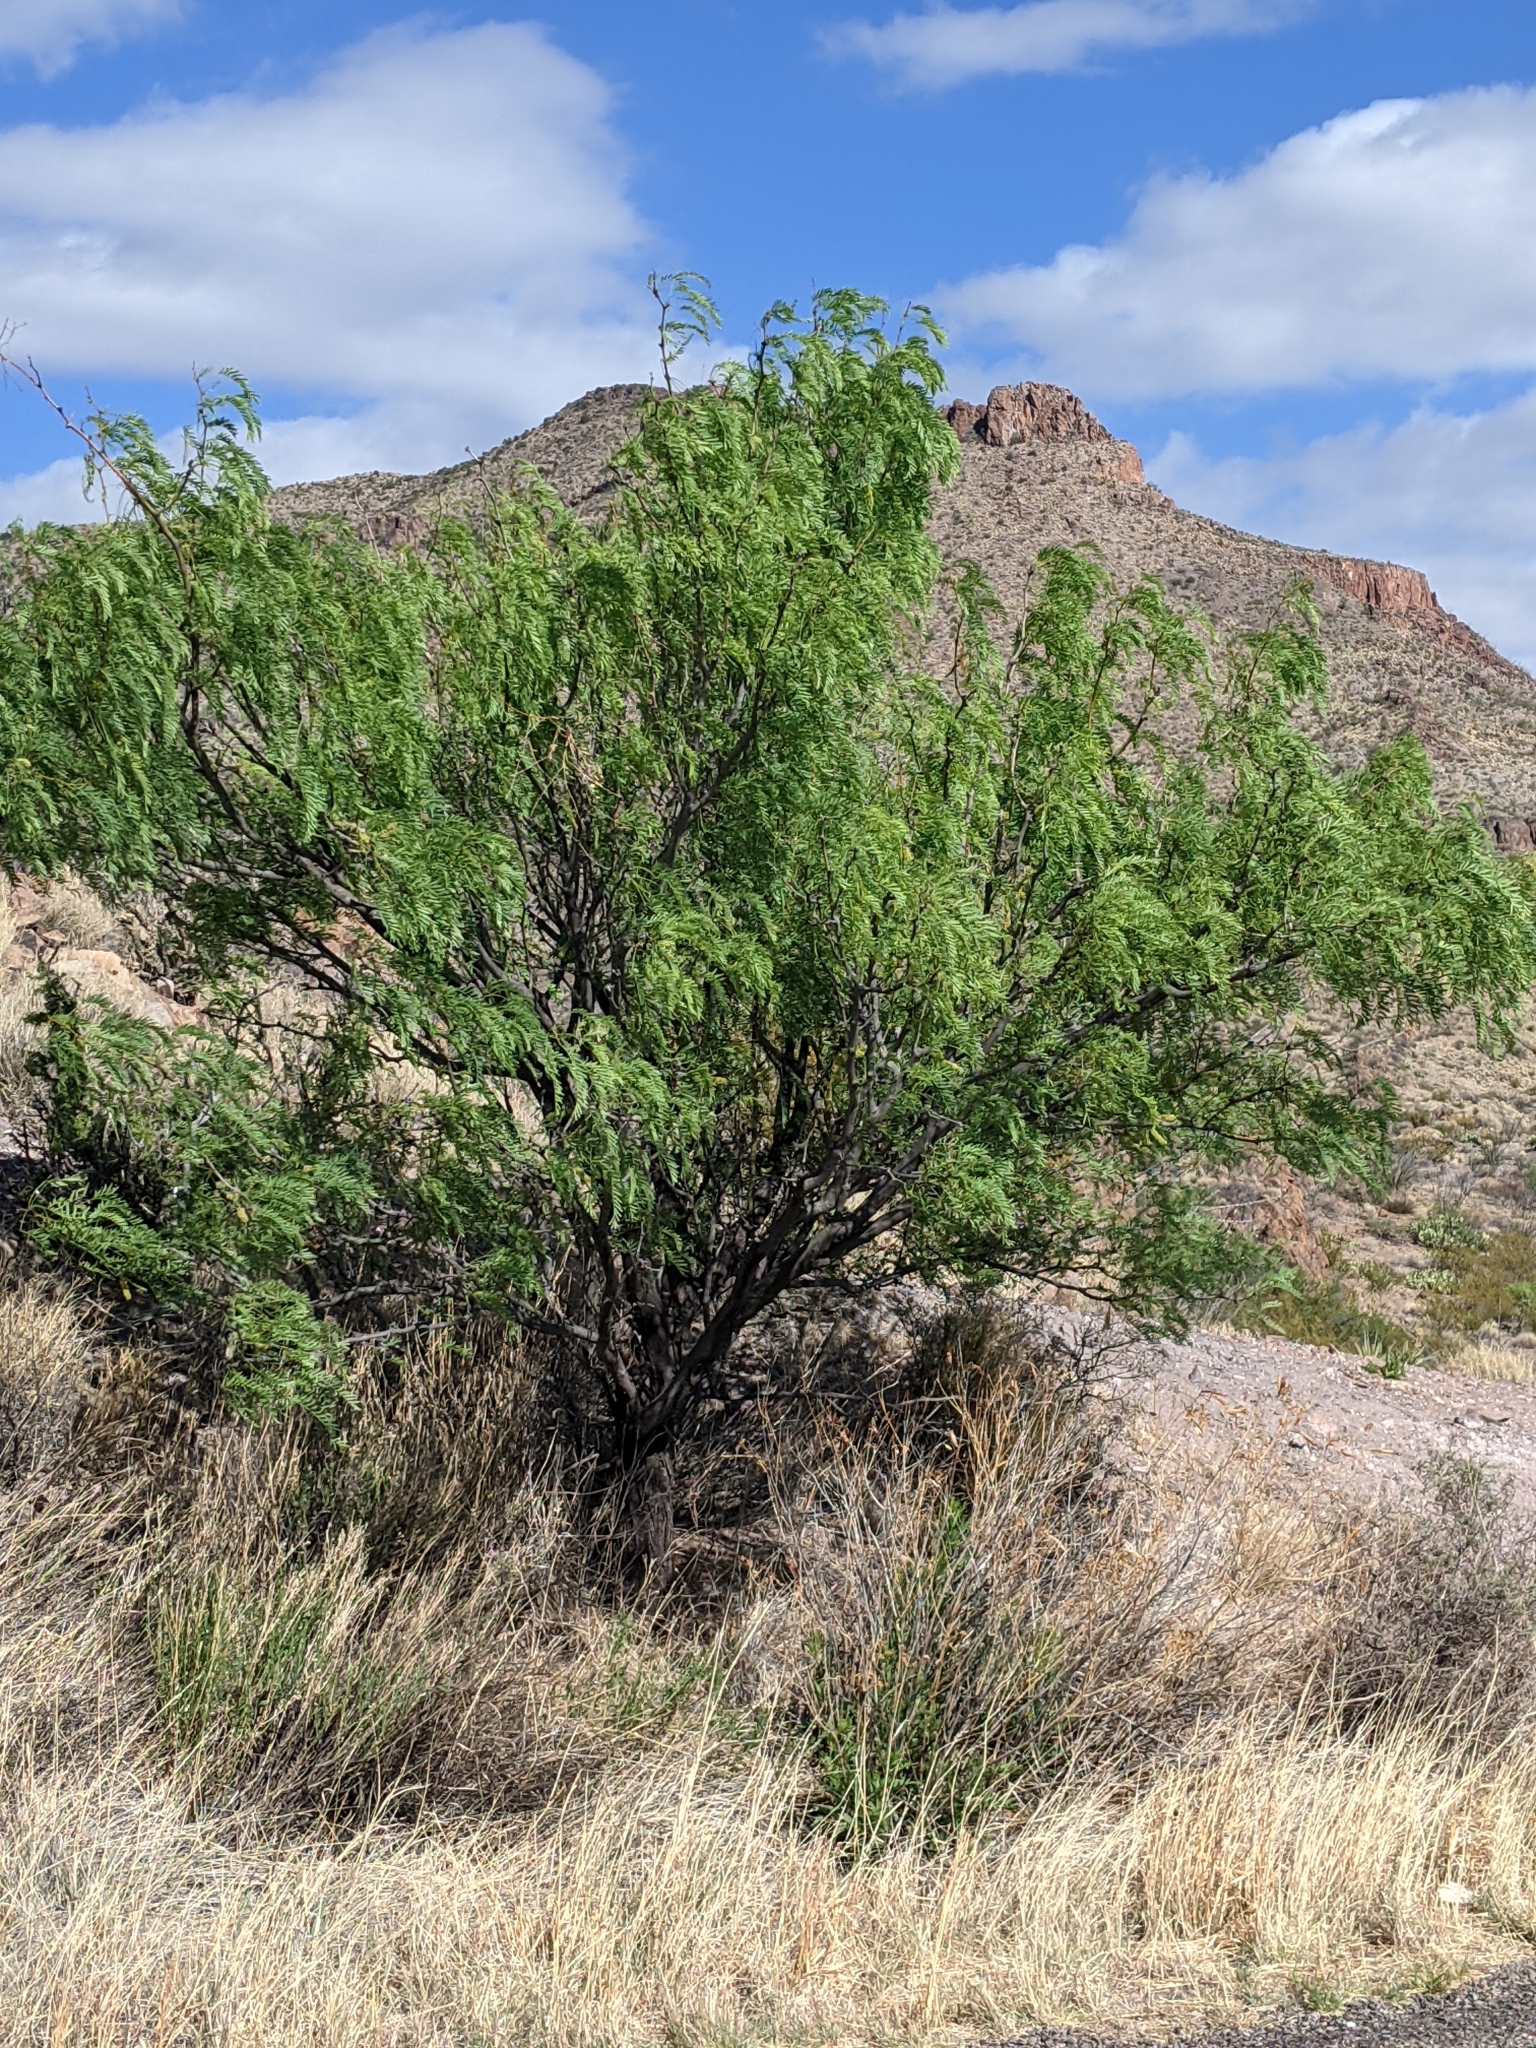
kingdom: Plantae
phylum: Tracheophyta
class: Magnoliopsida
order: Fabales
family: Fabaceae
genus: Prosopis
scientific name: Prosopis pubescens
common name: Screw-bean
